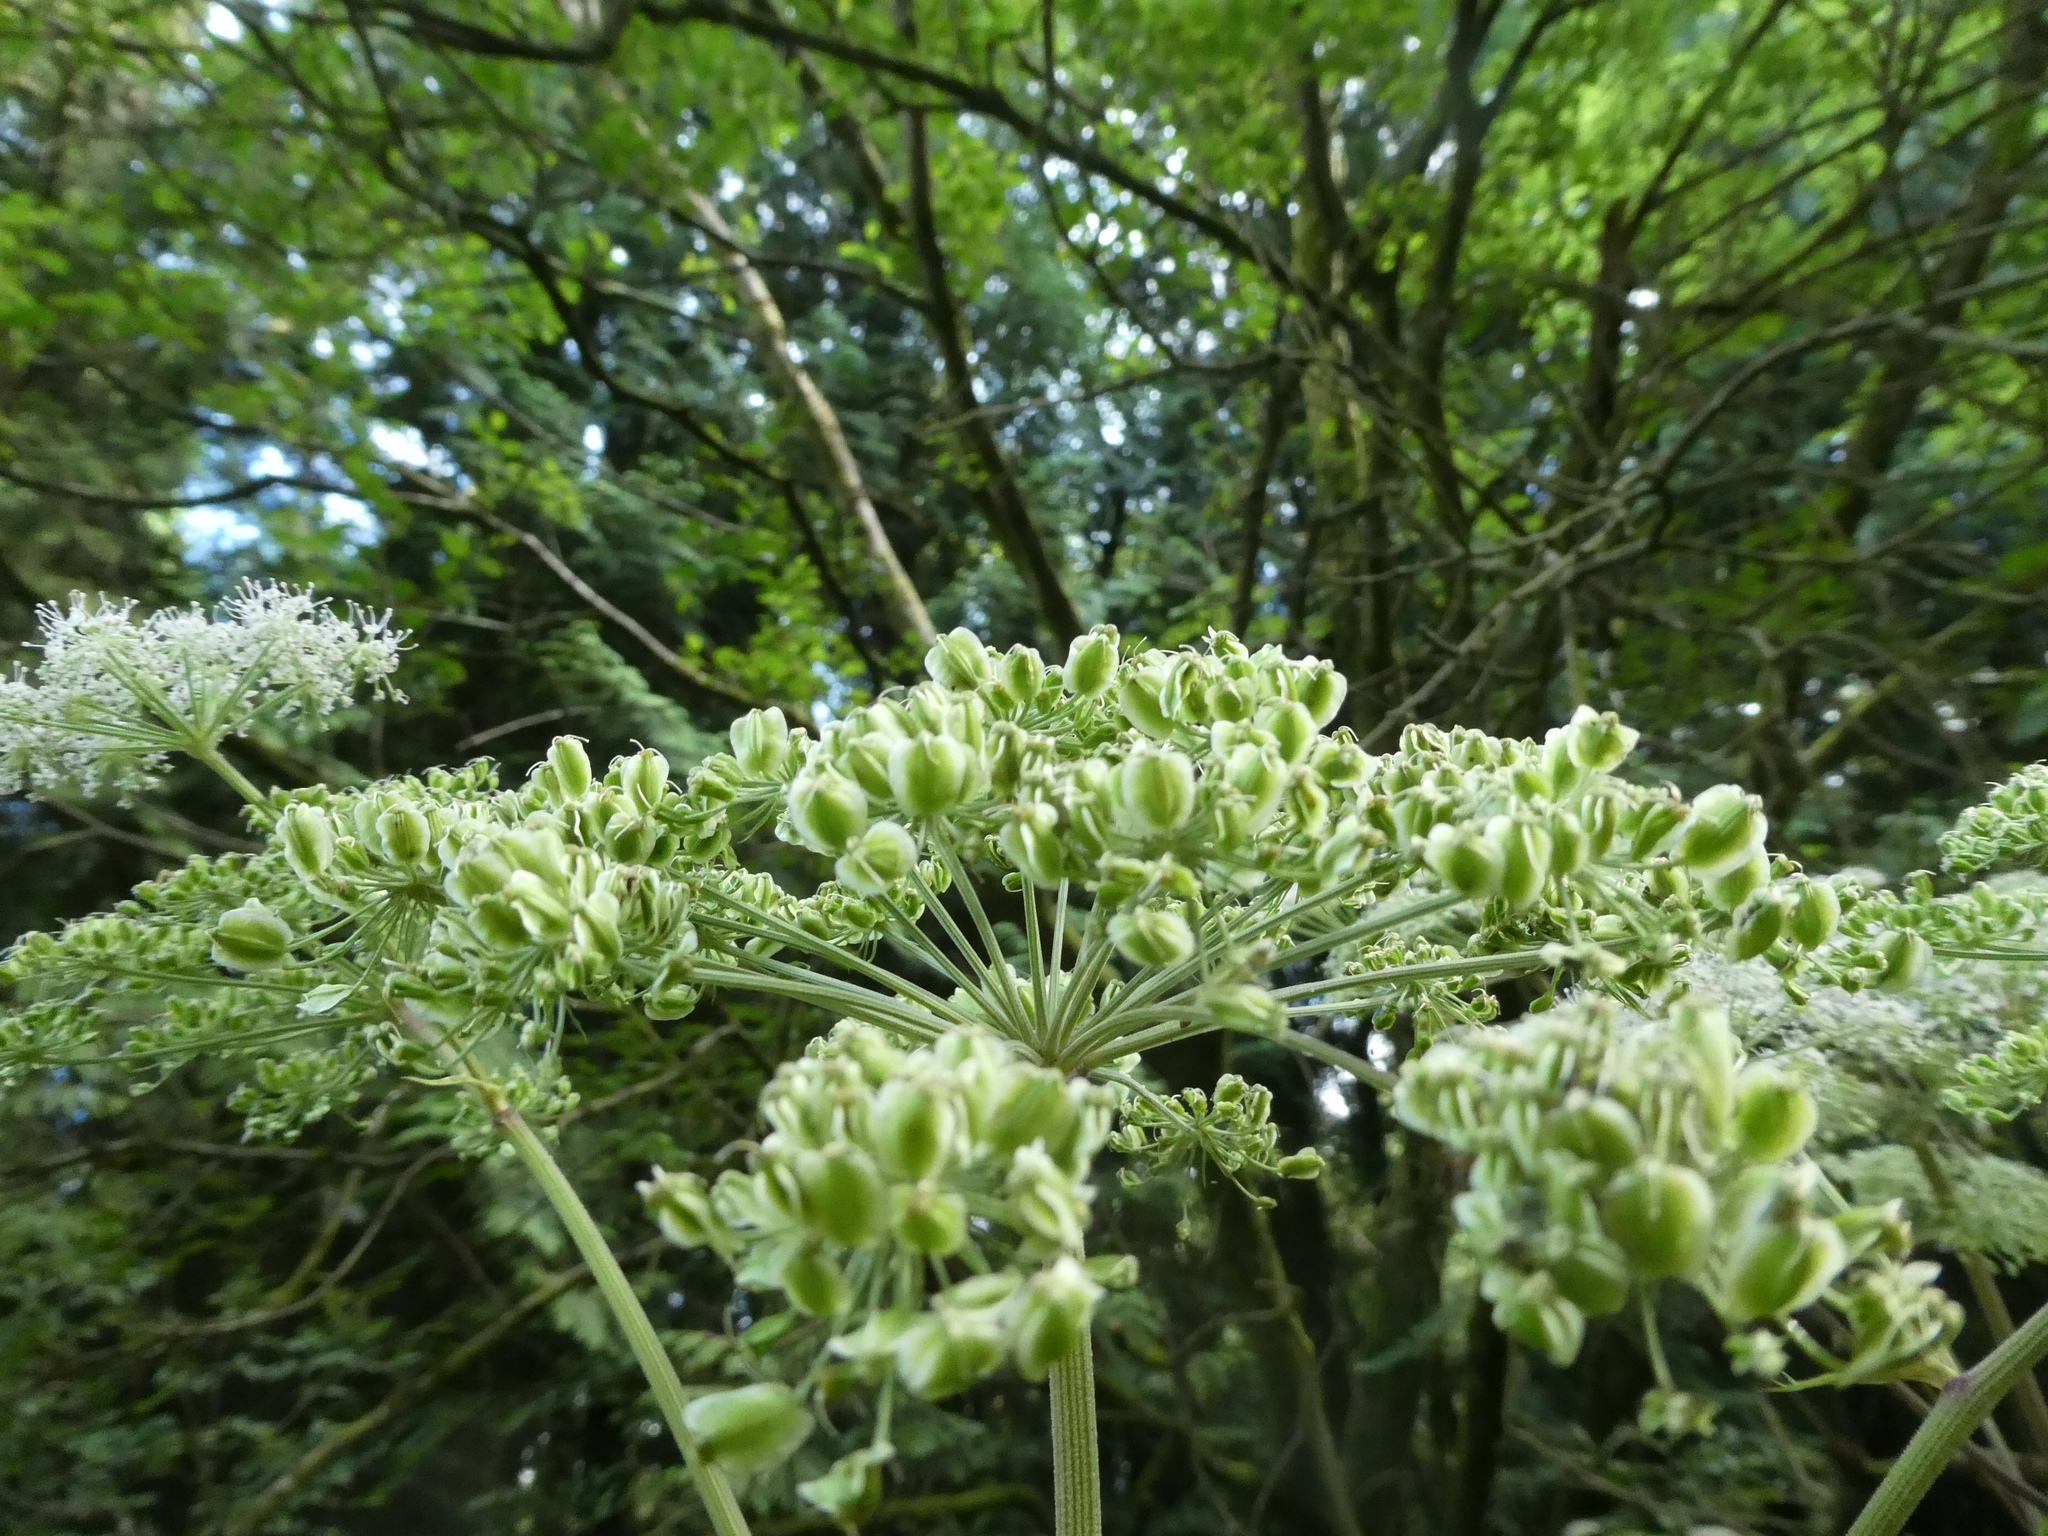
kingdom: Plantae
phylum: Tracheophyta
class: Magnoliopsida
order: Apiales
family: Apiaceae
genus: Angelica
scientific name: Angelica sylvestris
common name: Wild angelica
